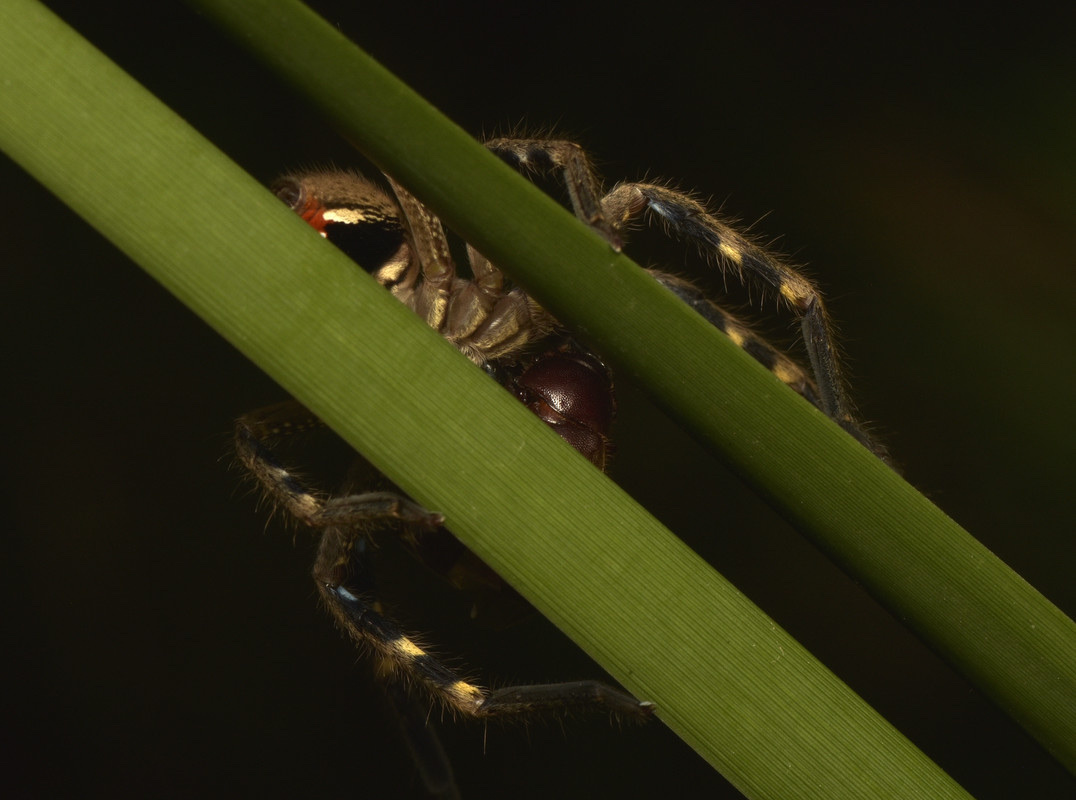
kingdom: Animalia
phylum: Arthropoda
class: Arachnida
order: Araneae
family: Sparassidae
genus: Neosparassus
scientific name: Neosparassus calligaster
